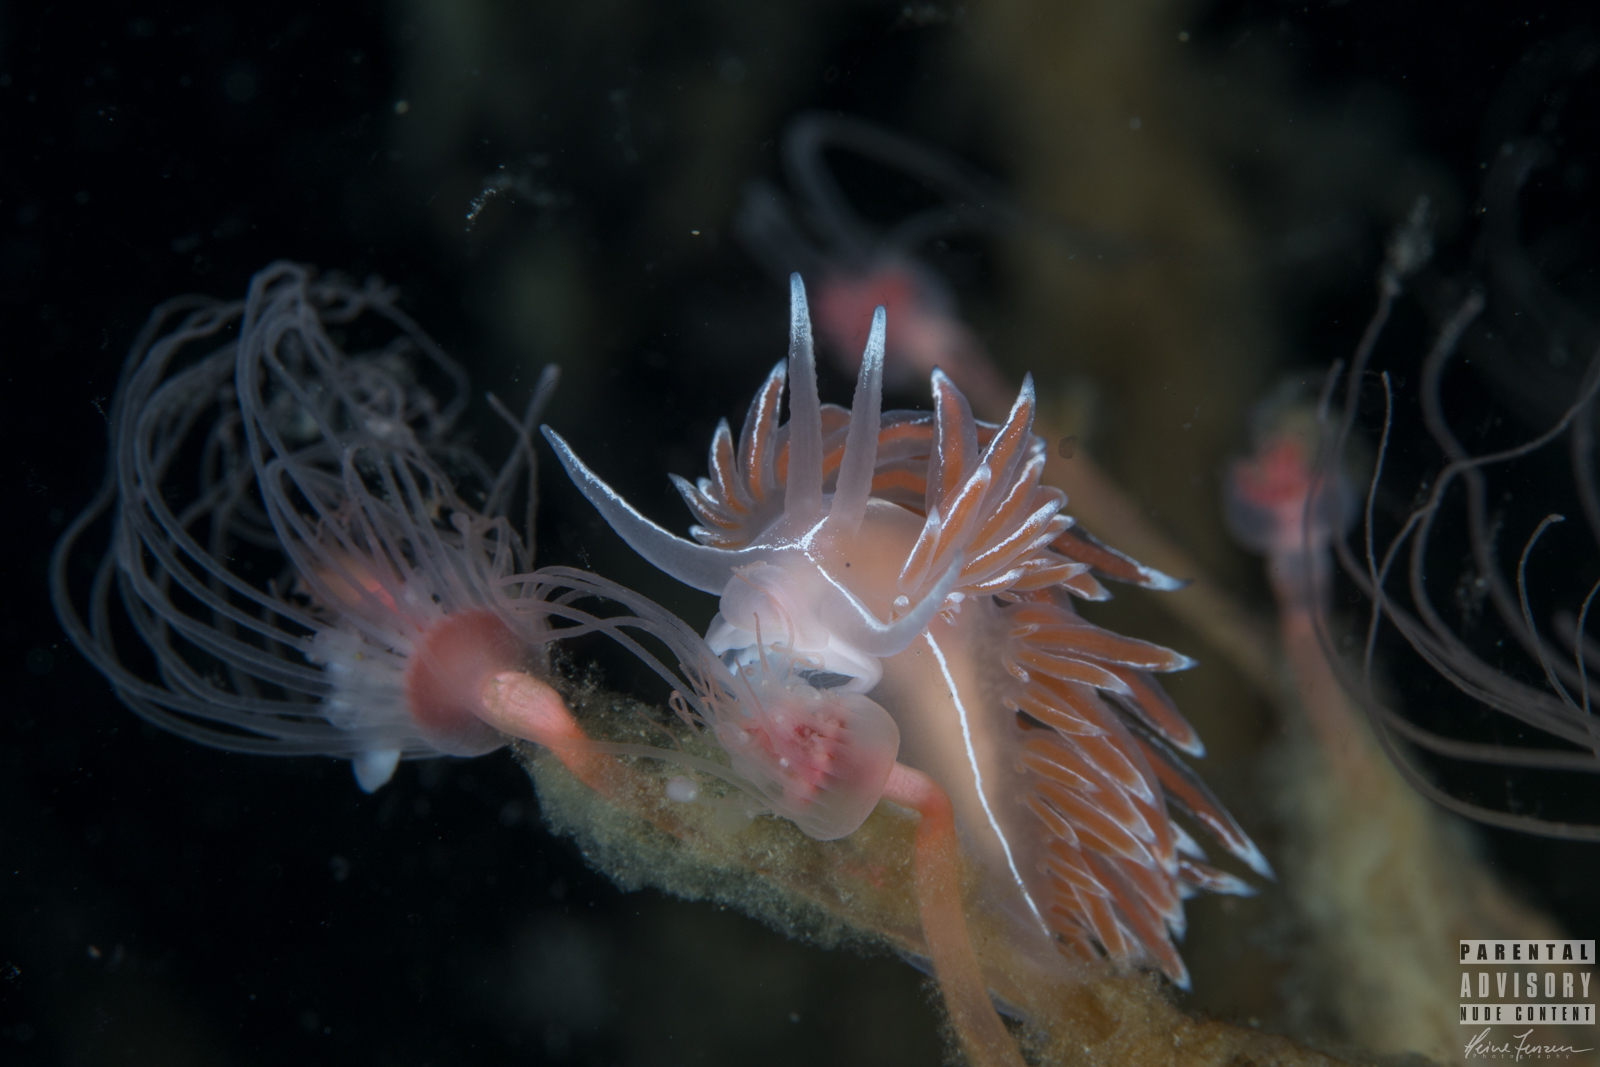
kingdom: Animalia
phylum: Mollusca
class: Gastropoda
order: Nudibranchia
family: Coryphellidae
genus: Coryphella
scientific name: Coryphella lineata
